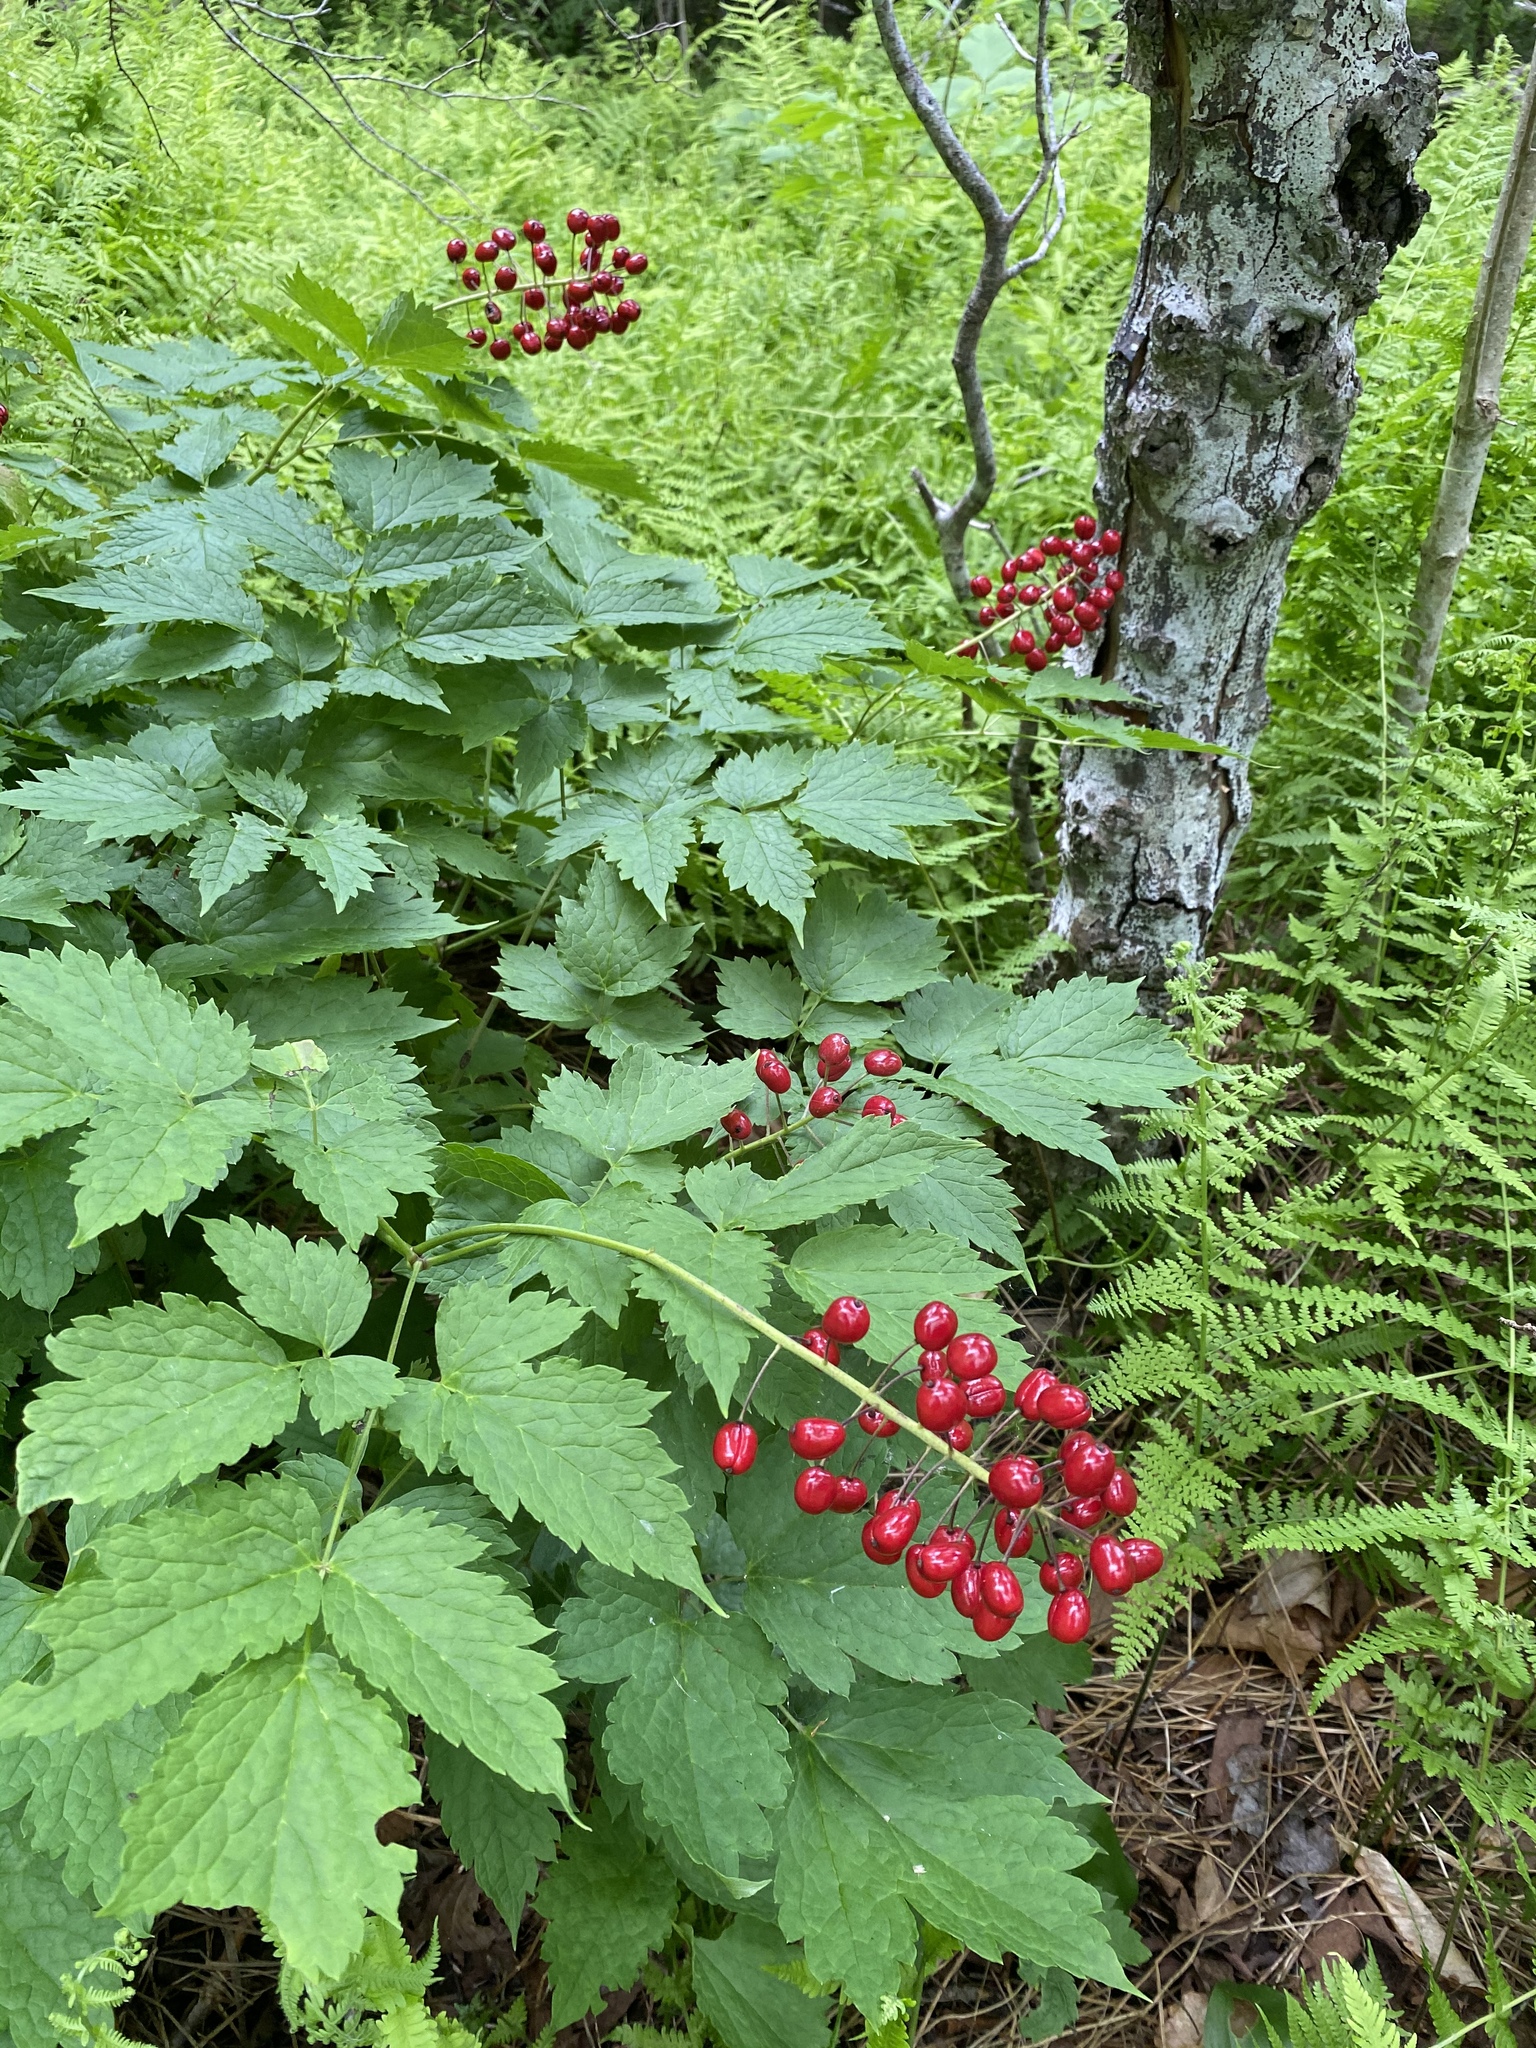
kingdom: Plantae
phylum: Tracheophyta
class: Magnoliopsida
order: Ranunculales
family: Ranunculaceae
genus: Actaea
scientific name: Actaea rubra
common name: Red baneberry
